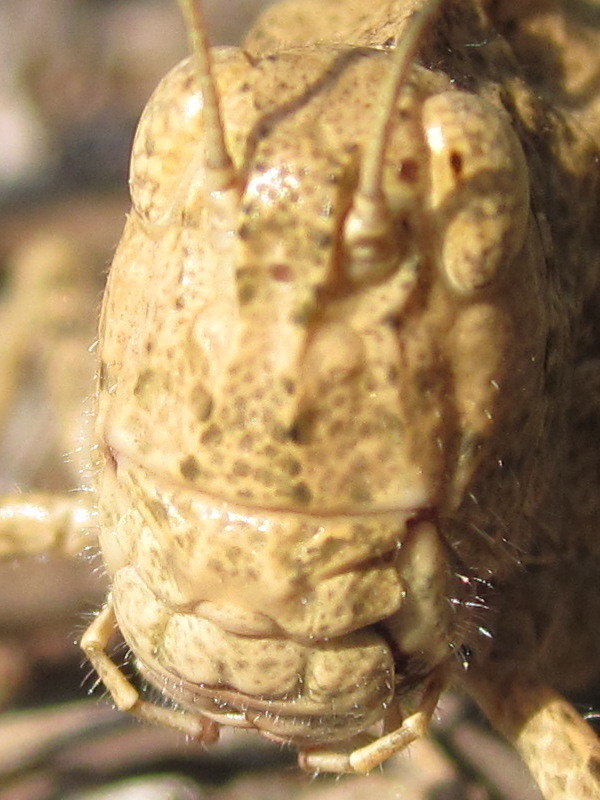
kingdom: Animalia
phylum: Arthropoda
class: Insecta
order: Orthoptera
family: Acrididae
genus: Dissosteira
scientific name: Dissosteira carolina
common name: Carolina grasshopper
